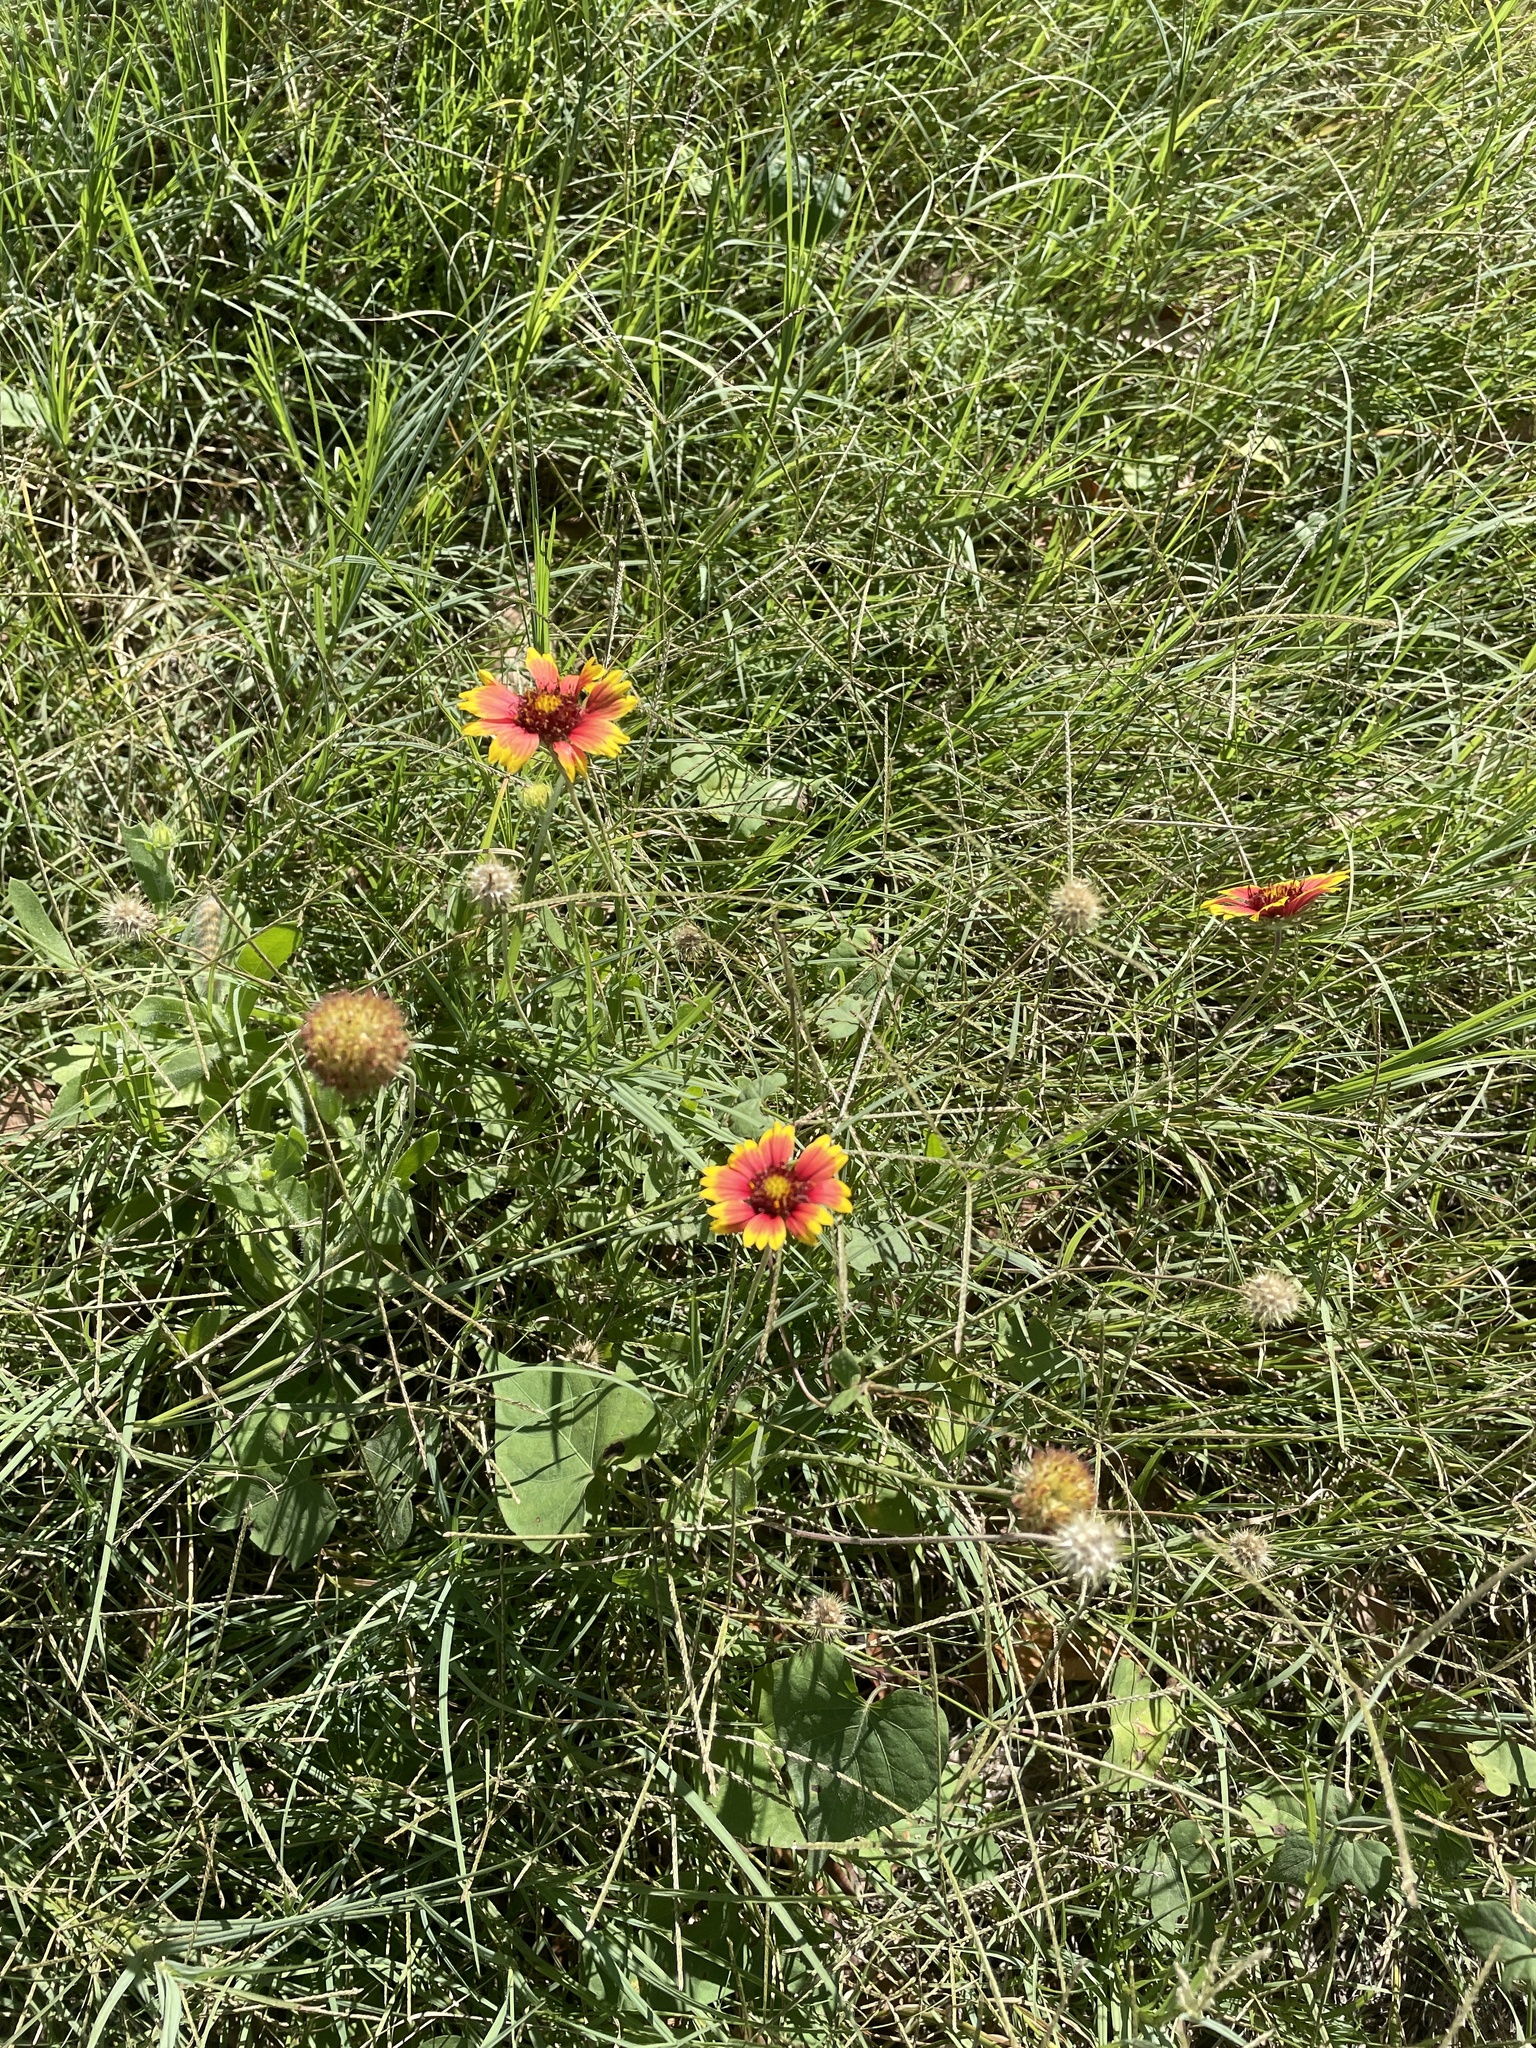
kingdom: Plantae
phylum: Tracheophyta
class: Magnoliopsida
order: Asterales
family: Asteraceae
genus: Gaillardia
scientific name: Gaillardia pulchella
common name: Firewheel
